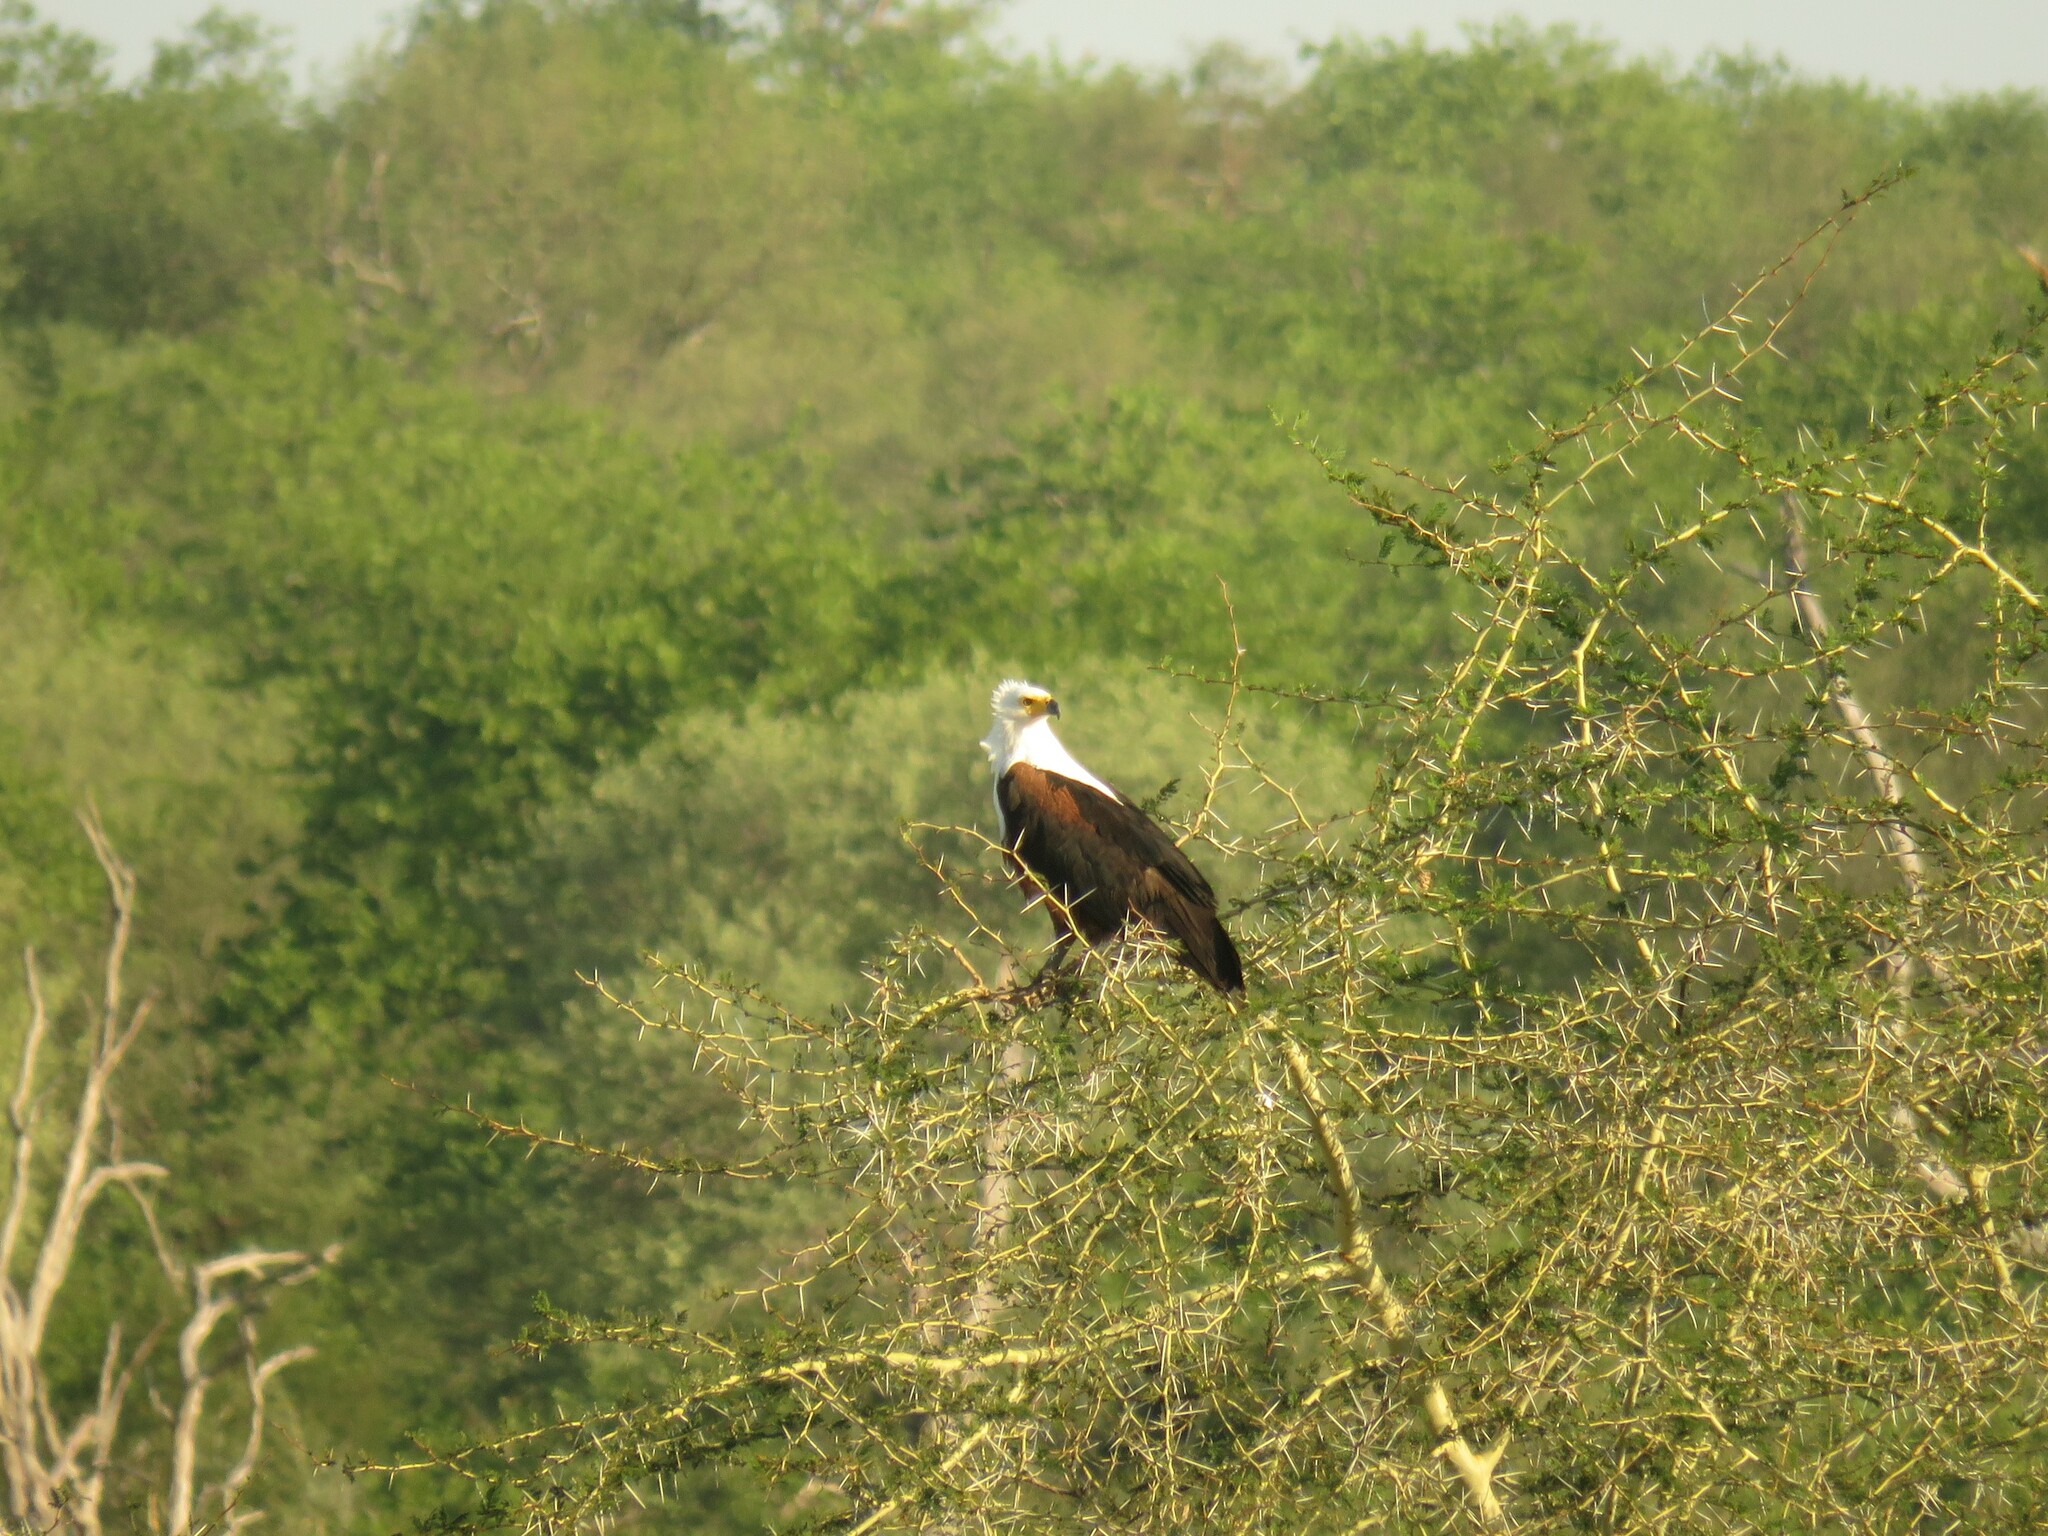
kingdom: Animalia
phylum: Chordata
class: Aves
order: Accipitriformes
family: Accipitridae
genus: Haliaeetus
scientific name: Haliaeetus vocifer
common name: African fish eagle
